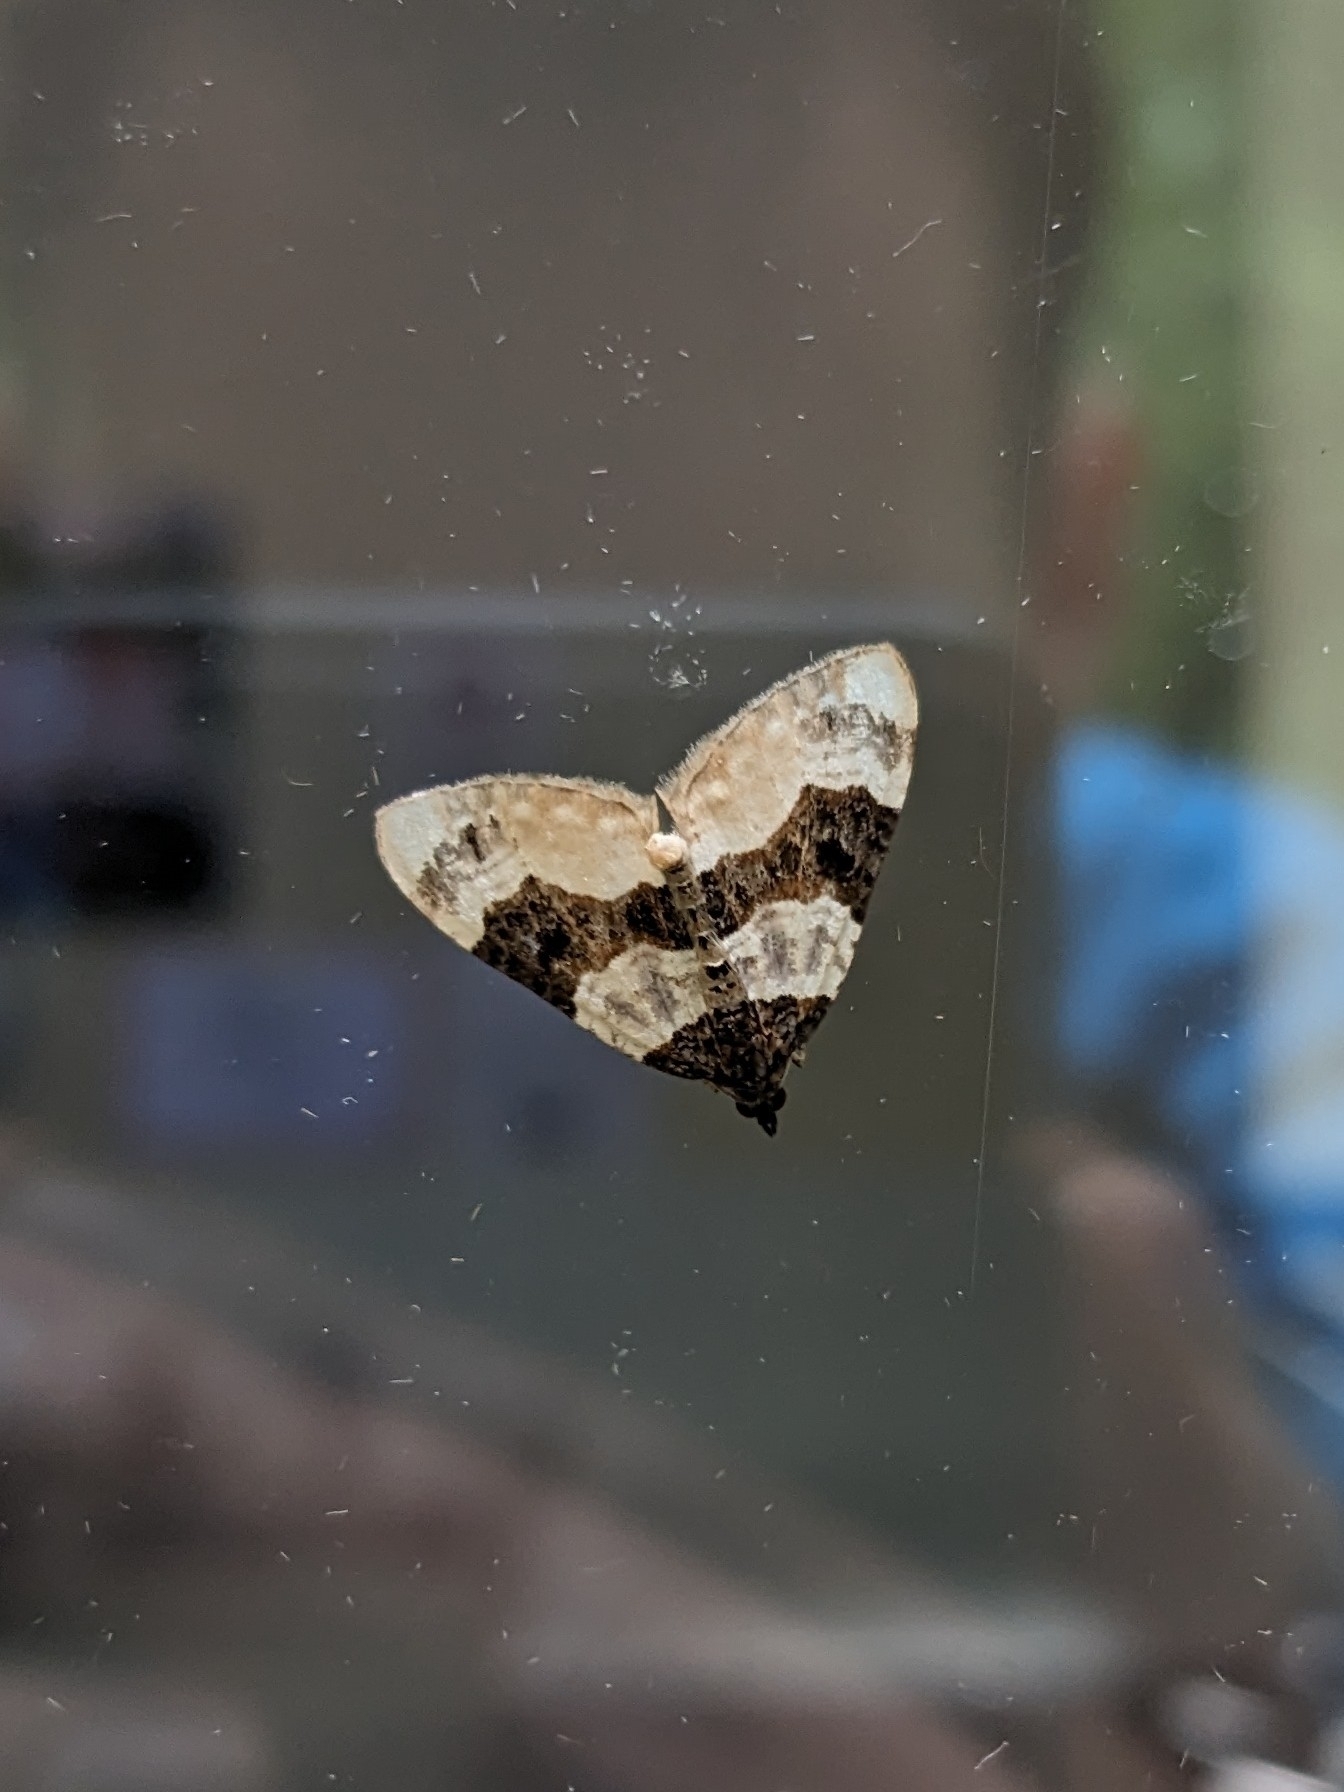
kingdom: Animalia
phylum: Arthropoda
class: Insecta
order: Lepidoptera
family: Geometridae
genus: Cosmorhoe
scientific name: Cosmorhoe ocellata
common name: Purple bar
